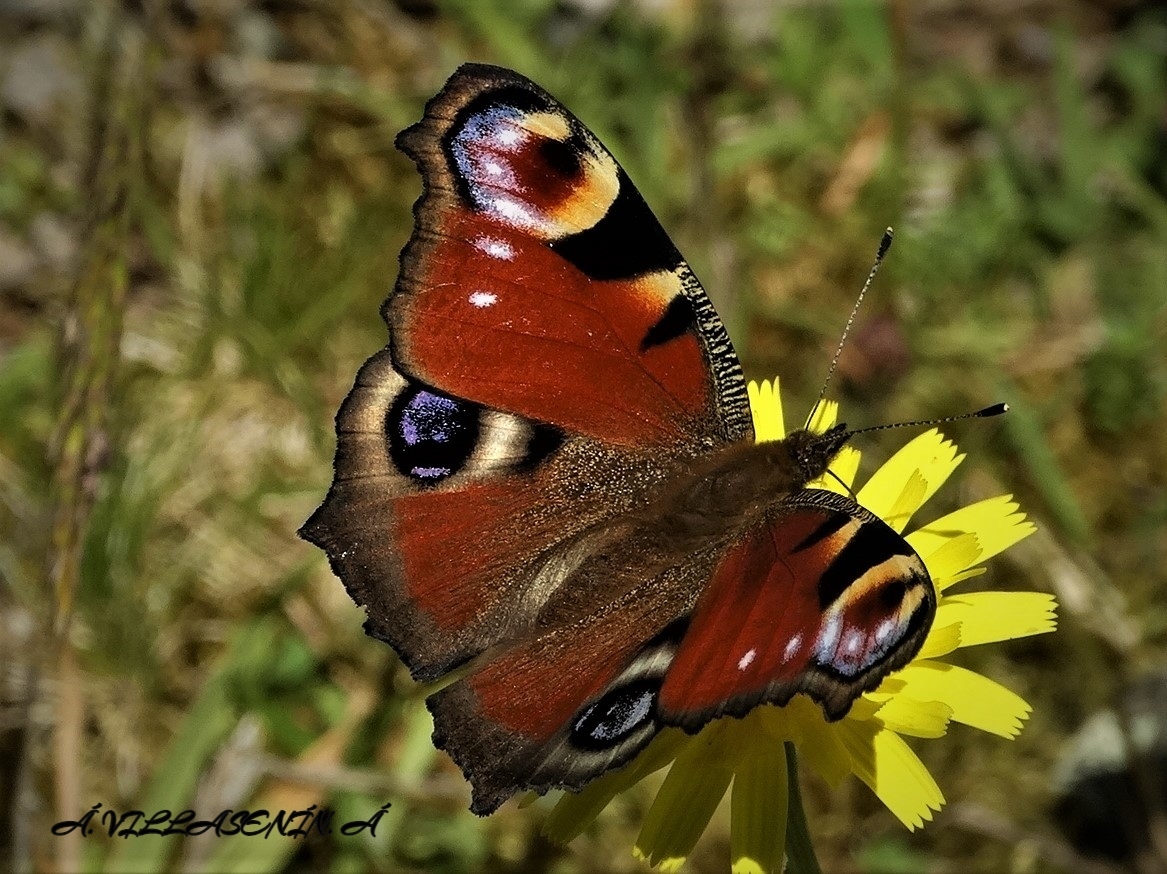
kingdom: Animalia
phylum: Arthropoda
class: Insecta
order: Lepidoptera
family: Nymphalidae
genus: Aglais
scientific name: Aglais io
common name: Peacock
